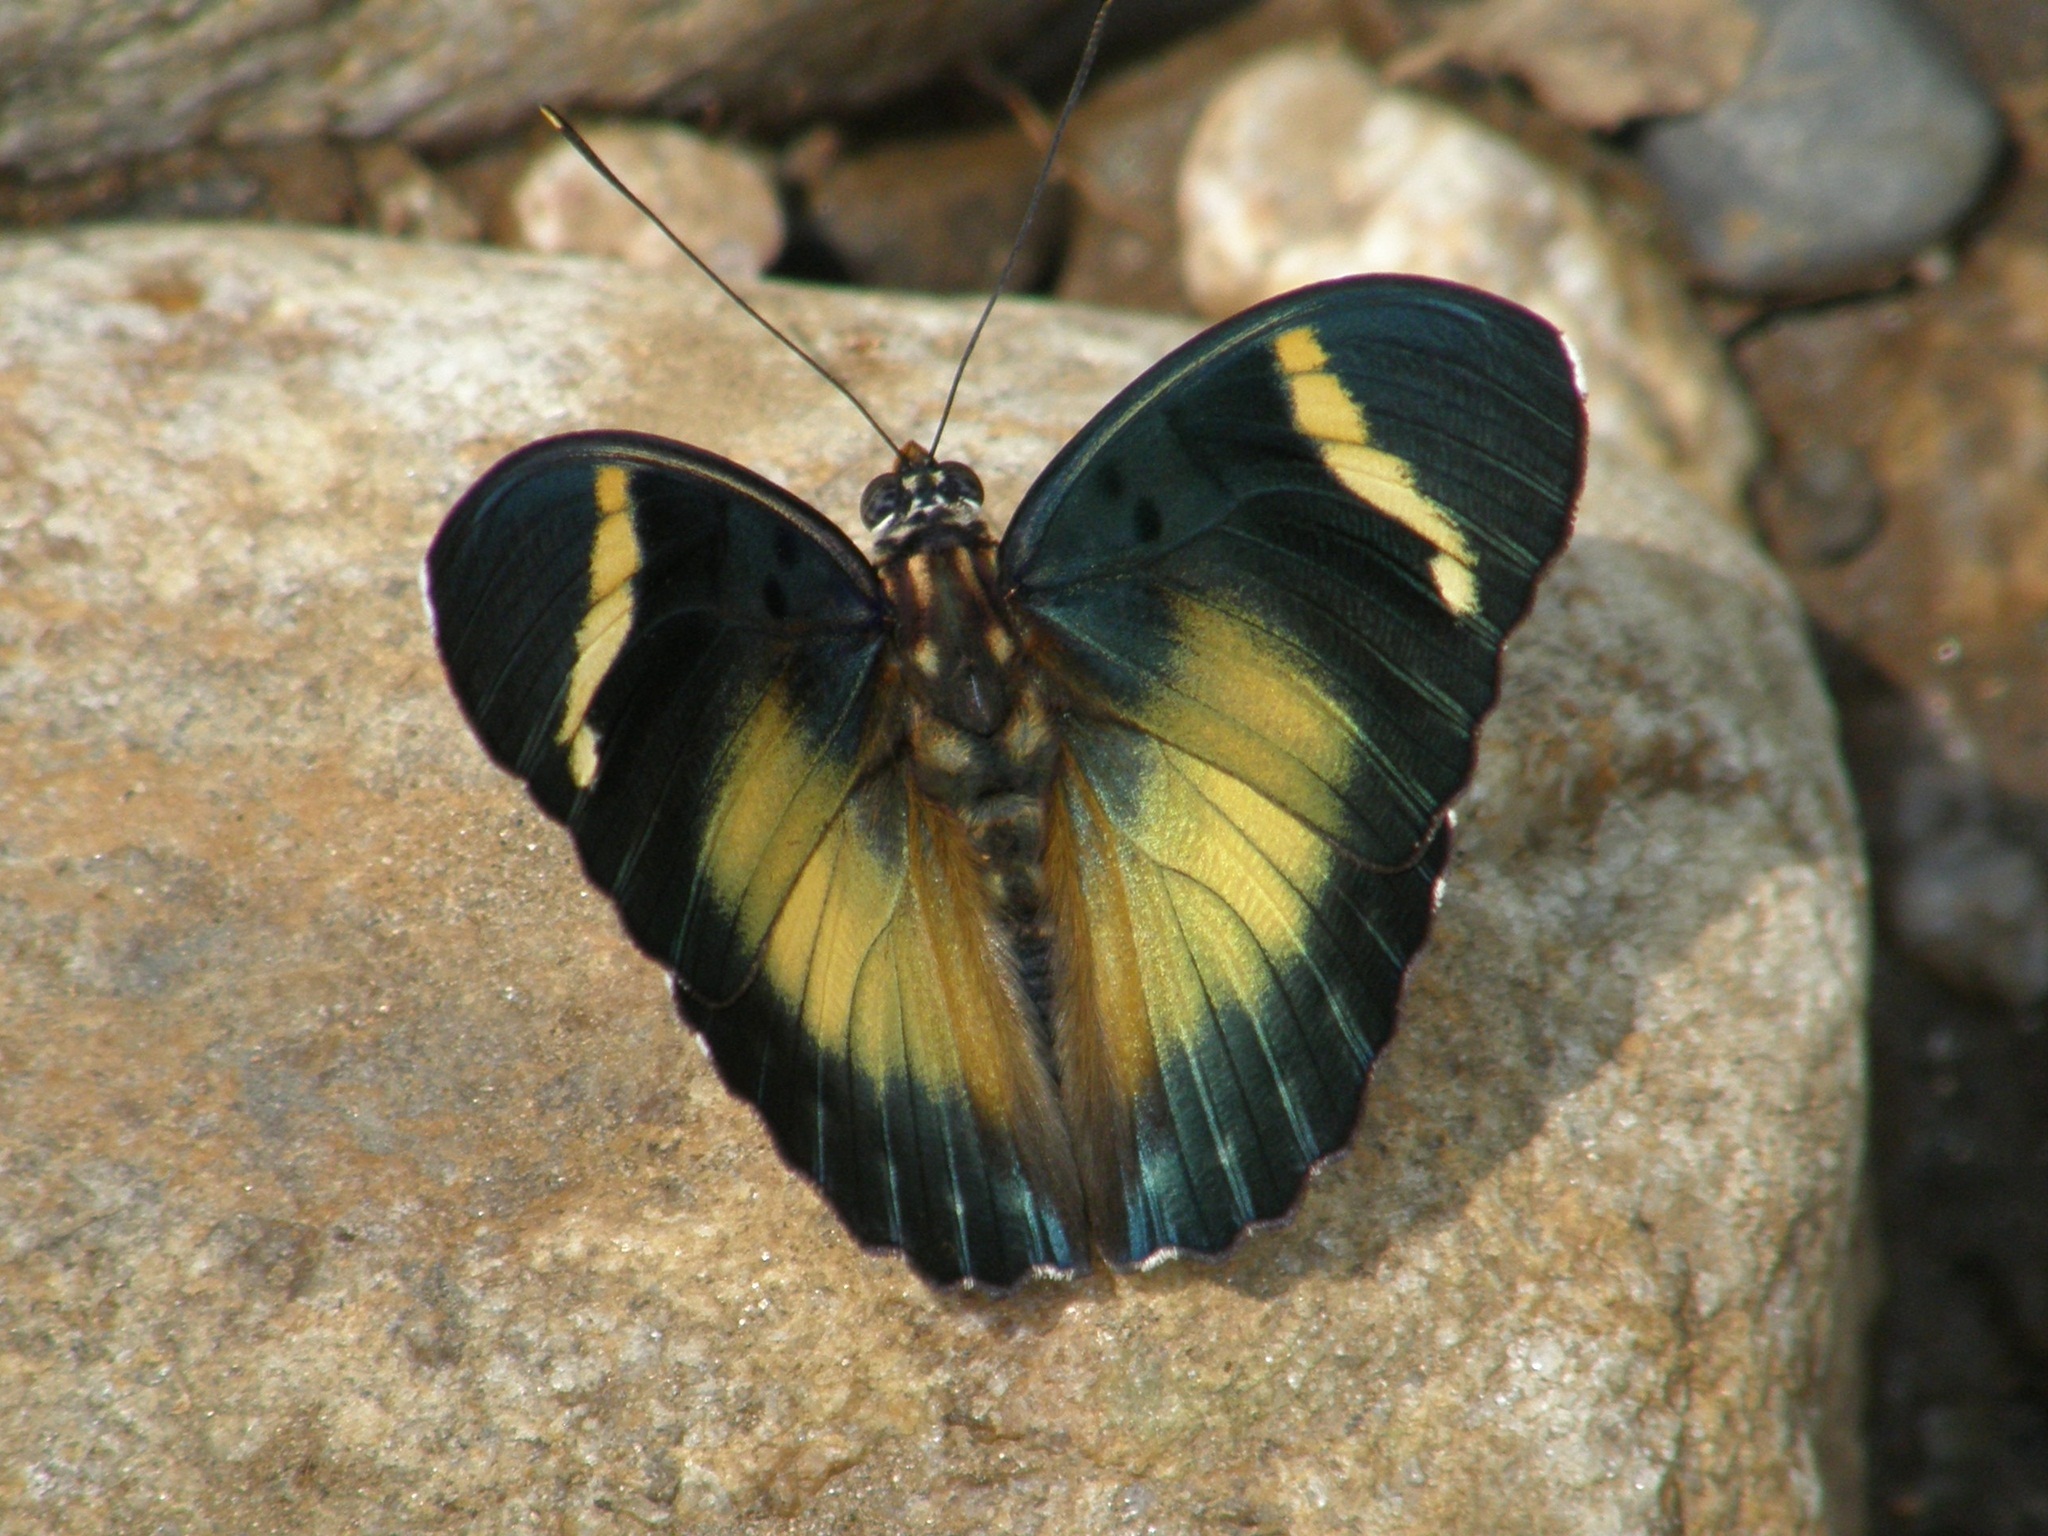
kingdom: Animalia
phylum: Arthropoda
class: Insecta
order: Lepidoptera
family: Nymphalidae
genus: Euphaedra
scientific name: Euphaedra neumanni
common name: Ethiopian forester
